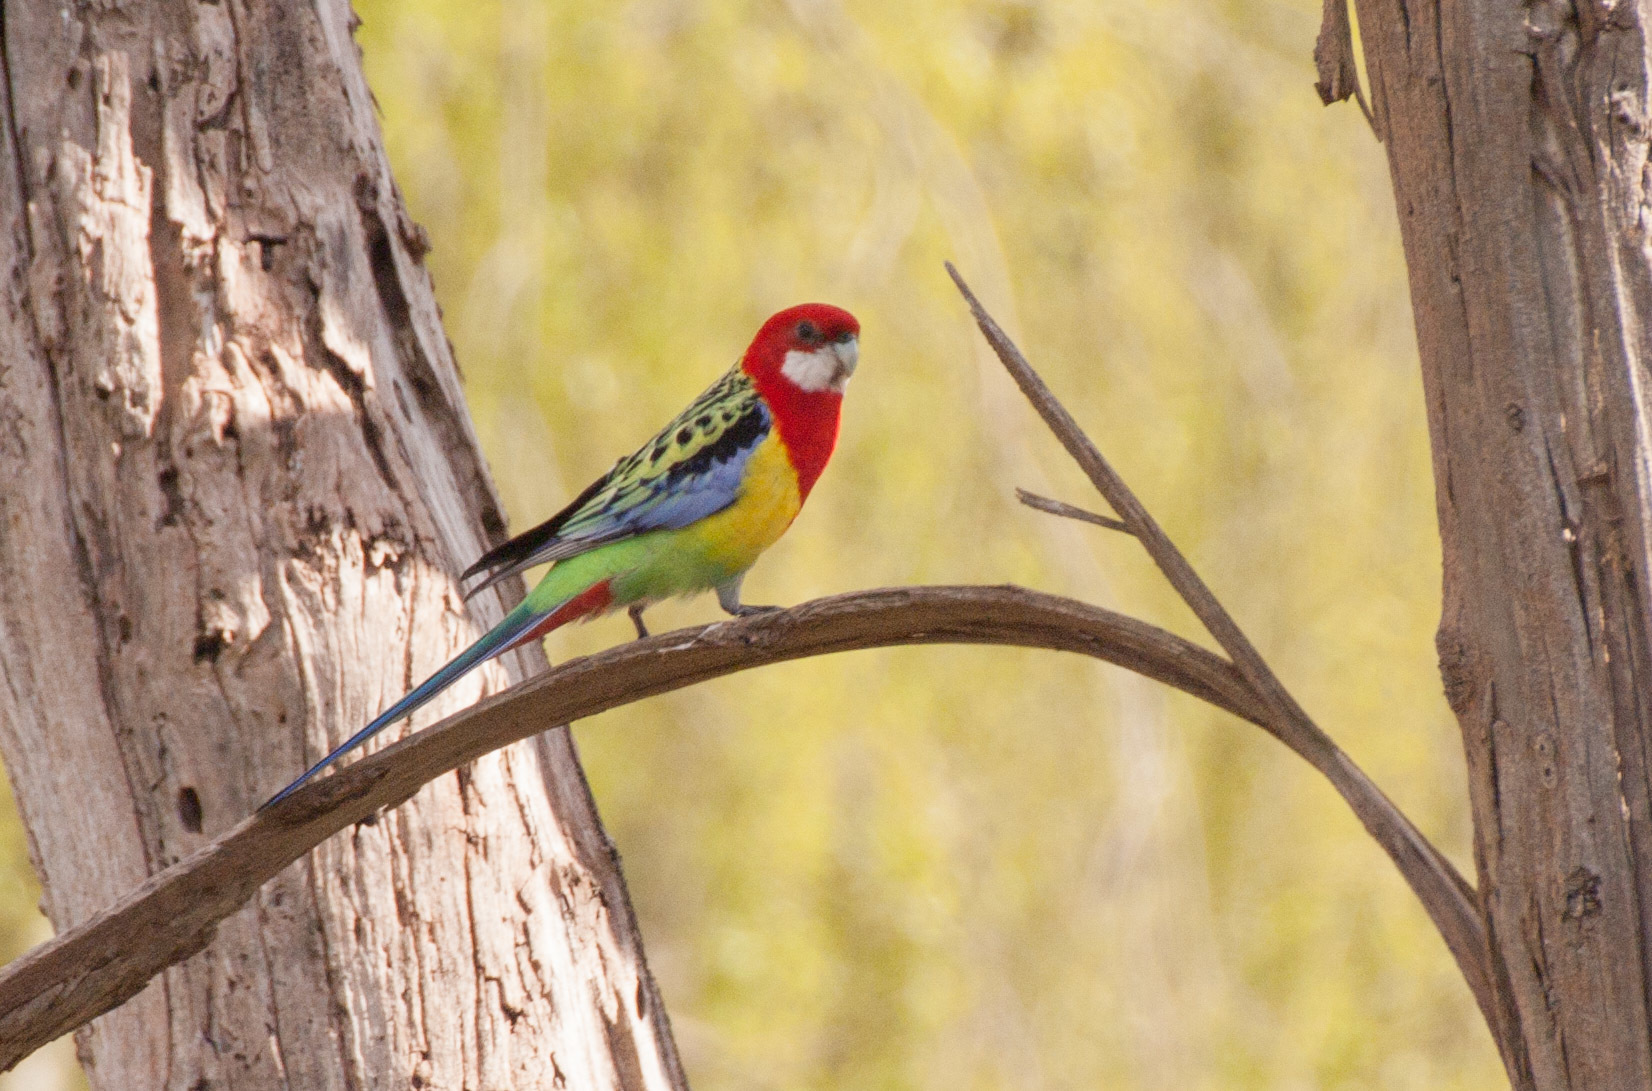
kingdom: Animalia
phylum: Chordata
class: Aves
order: Psittaciformes
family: Psittacidae
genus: Platycercus
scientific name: Platycercus eximius
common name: Eastern rosella
